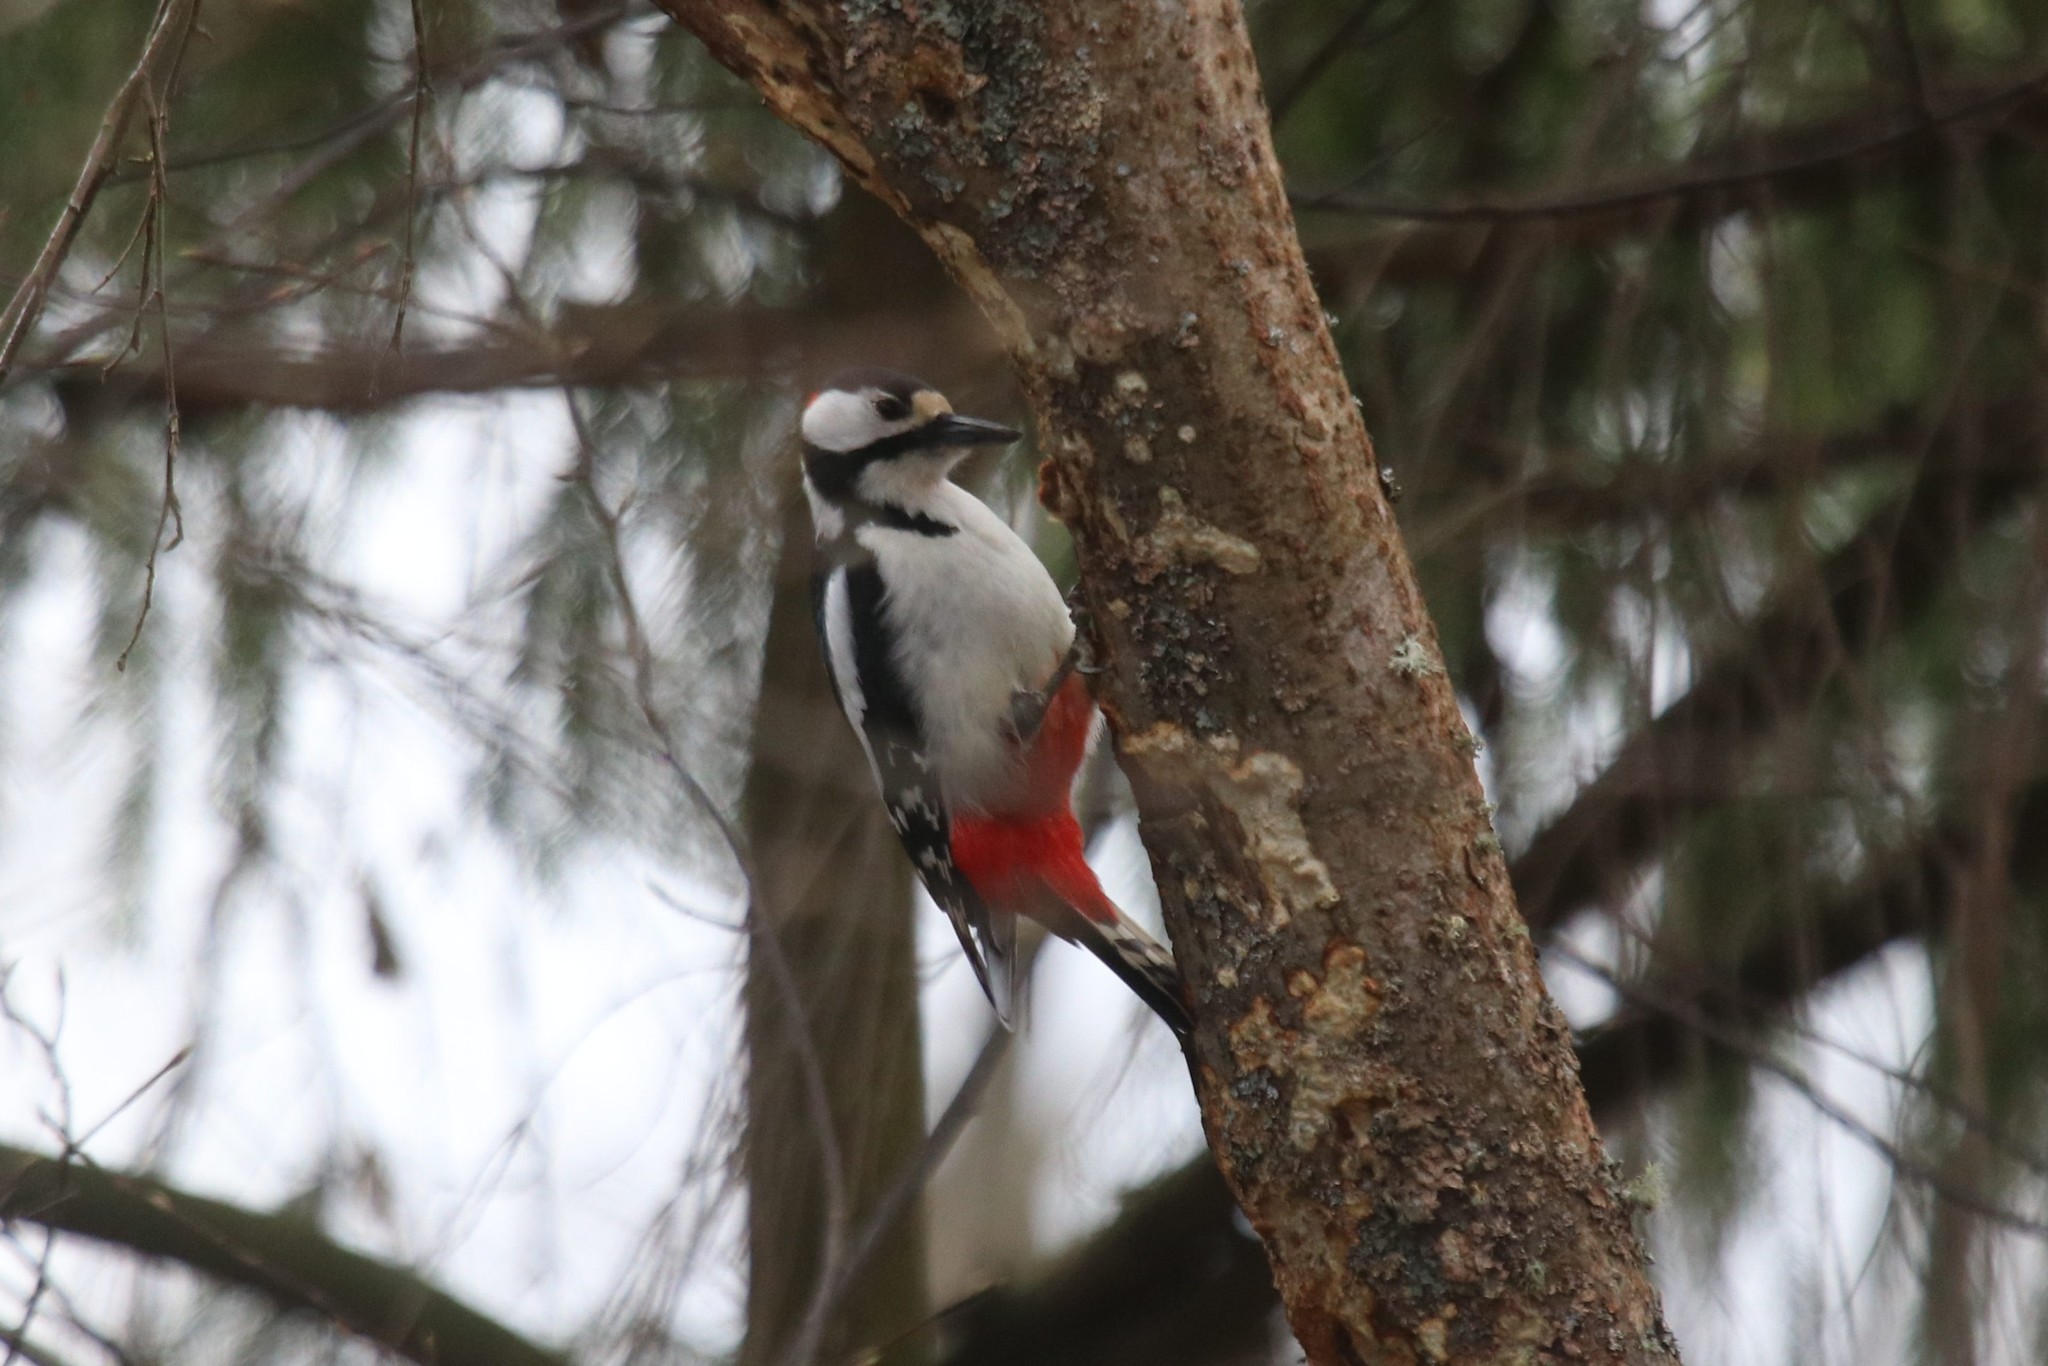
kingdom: Animalia
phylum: Chordata
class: Aves
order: Piciformes
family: Picidae
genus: Dendrocopos
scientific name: Dendrocopos major
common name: Great spotted woodpecker
